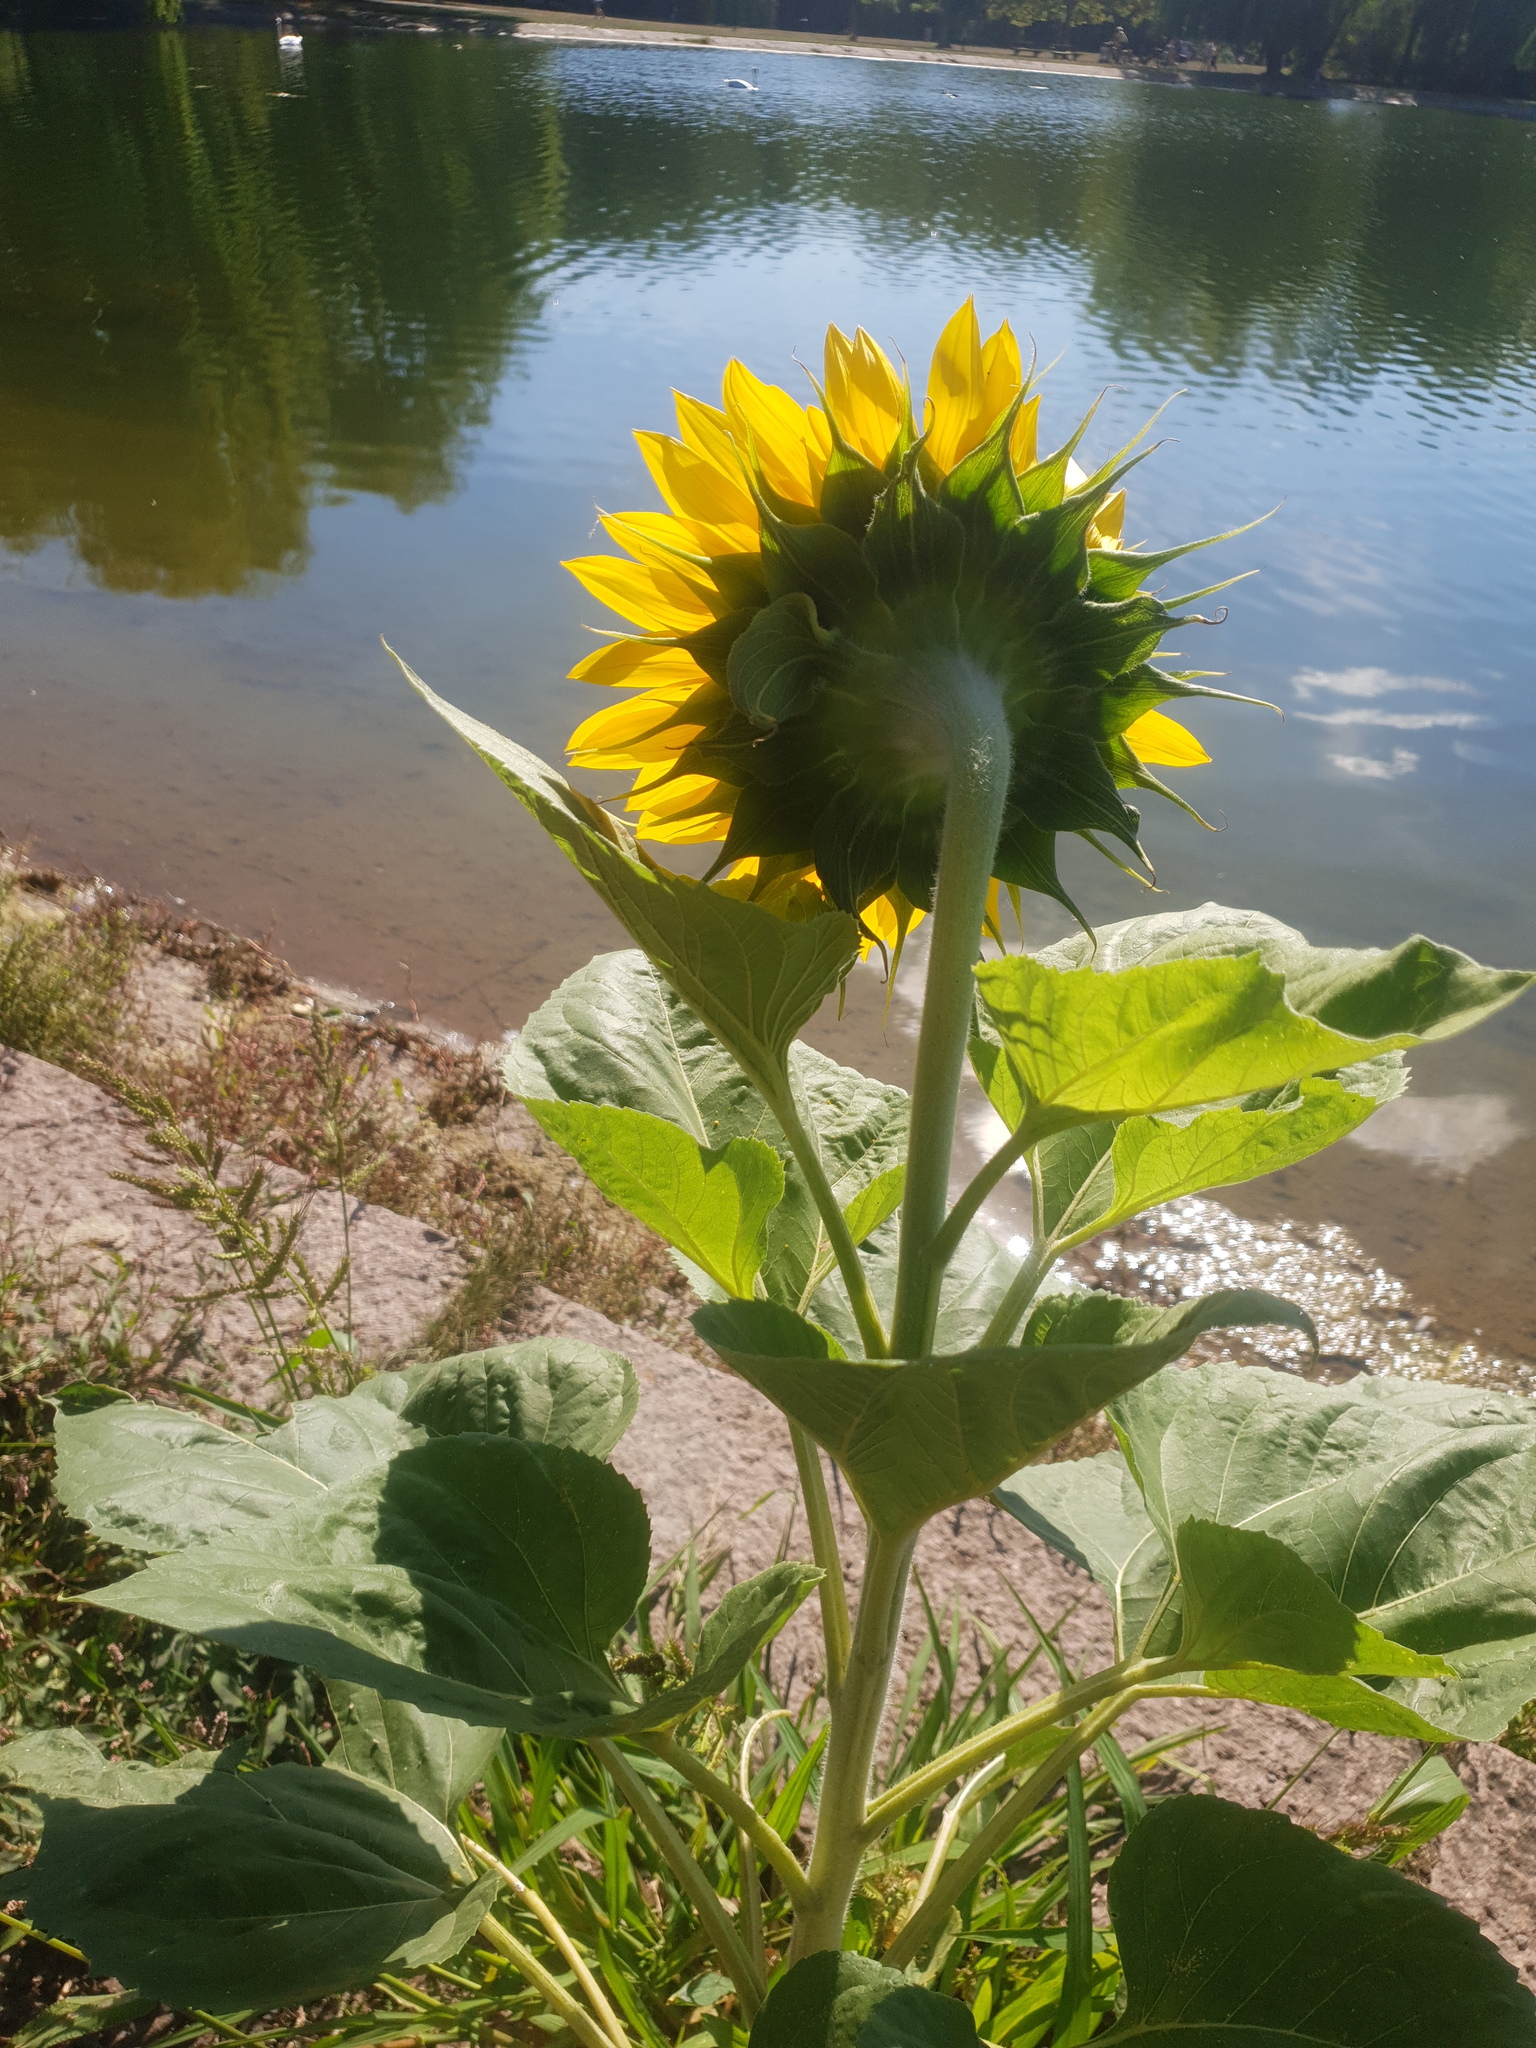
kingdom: Plantae
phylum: Tracheophyta
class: Magnoliopsida
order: Asterales
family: Asteraceae
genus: Helianthus
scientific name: Helianthus annuus
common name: Sunflower
